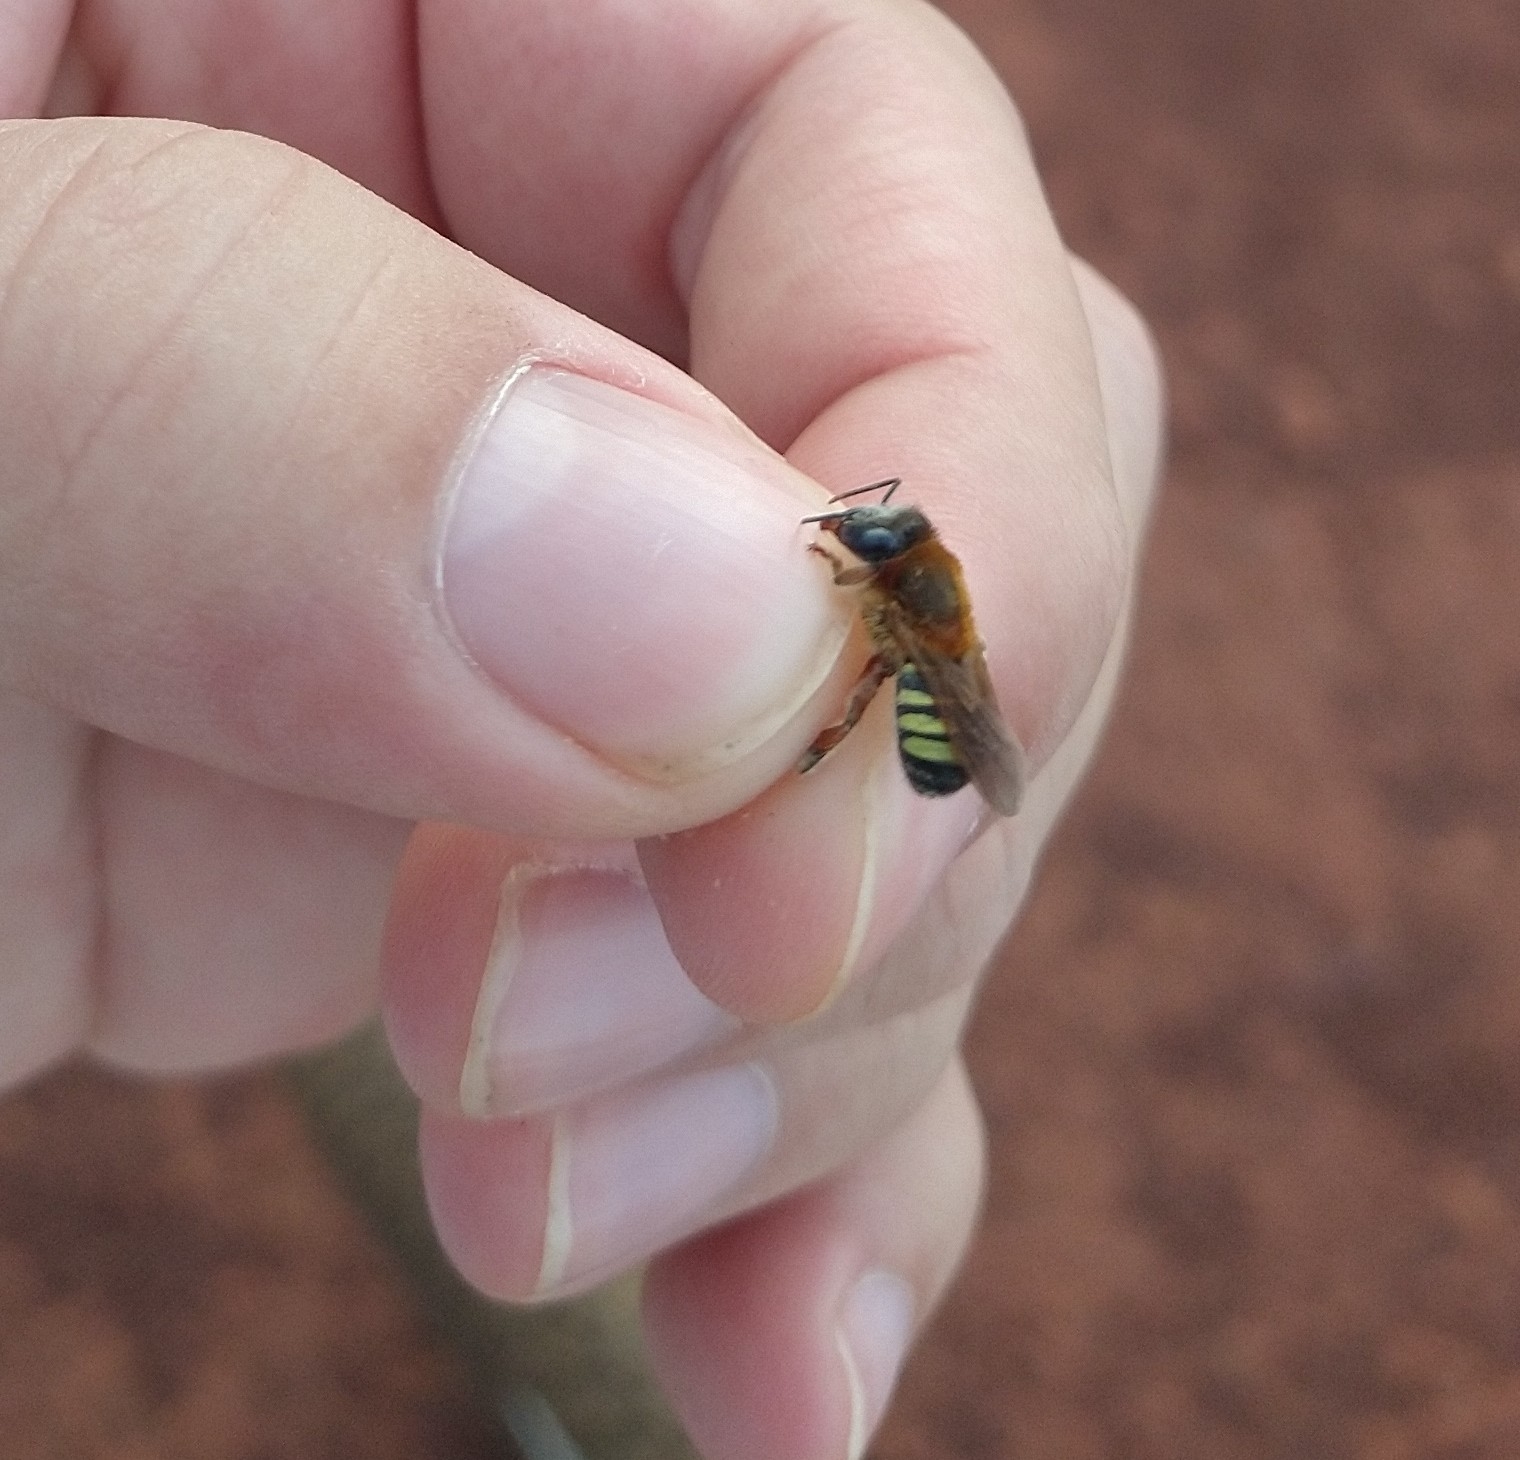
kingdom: Animalia
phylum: Arthropoda
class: Insecta
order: Hymenoptera
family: Apidae
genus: Melipona
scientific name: Melipona quinquefasciata
